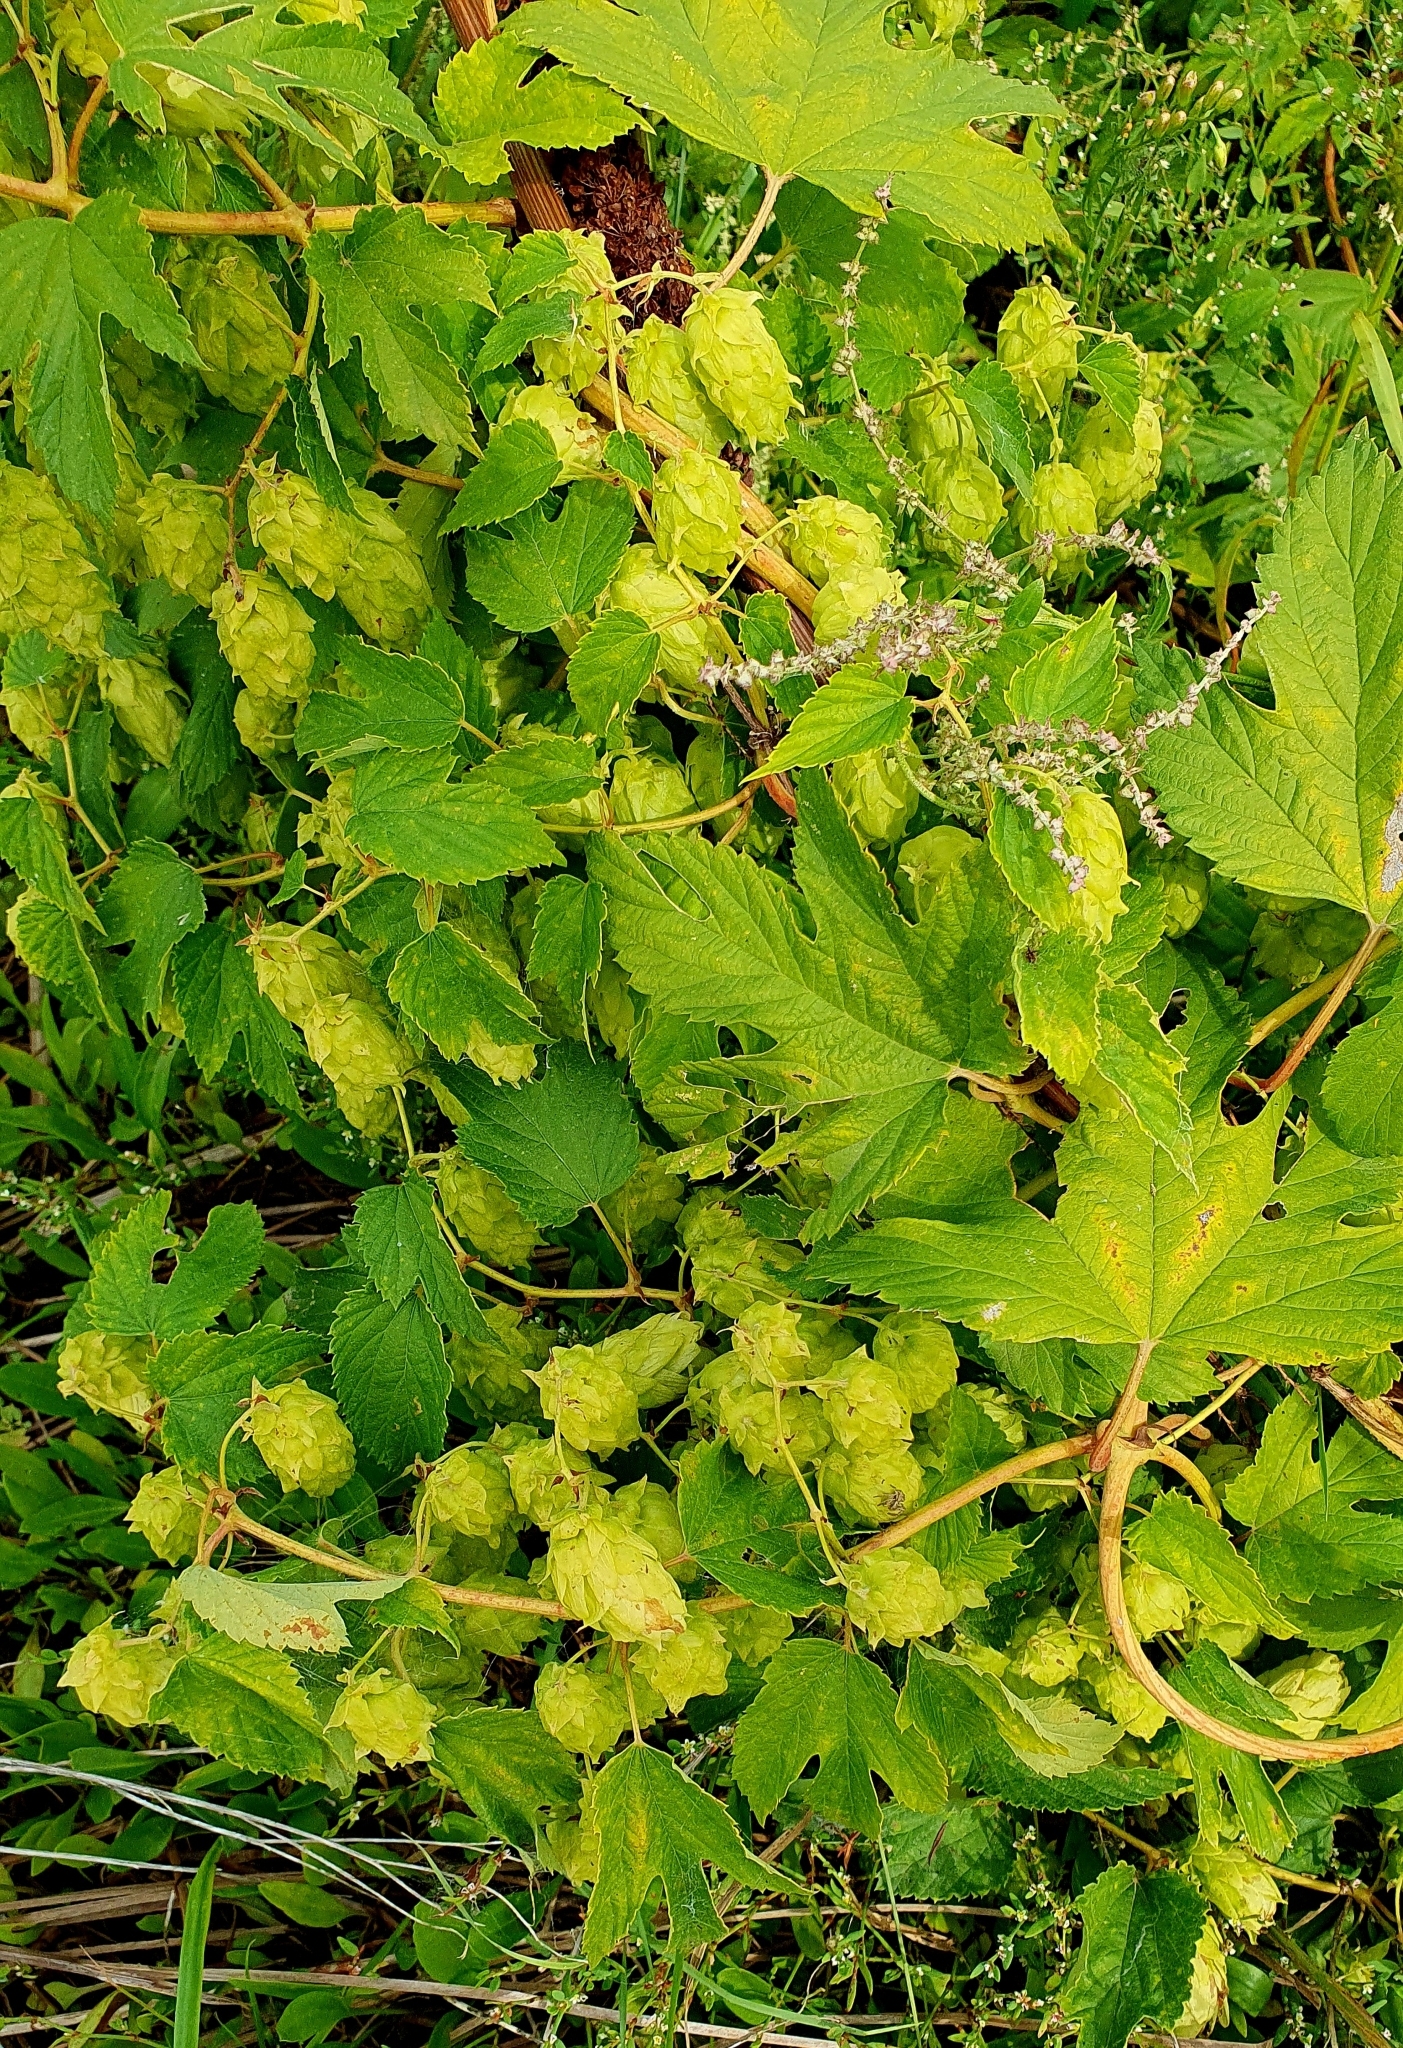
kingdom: Plantae
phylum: Tracheophyta
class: Magnoliopsida
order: Rosales
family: Cannabaceae
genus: Humulus
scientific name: Humulus lupulus
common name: Hop
